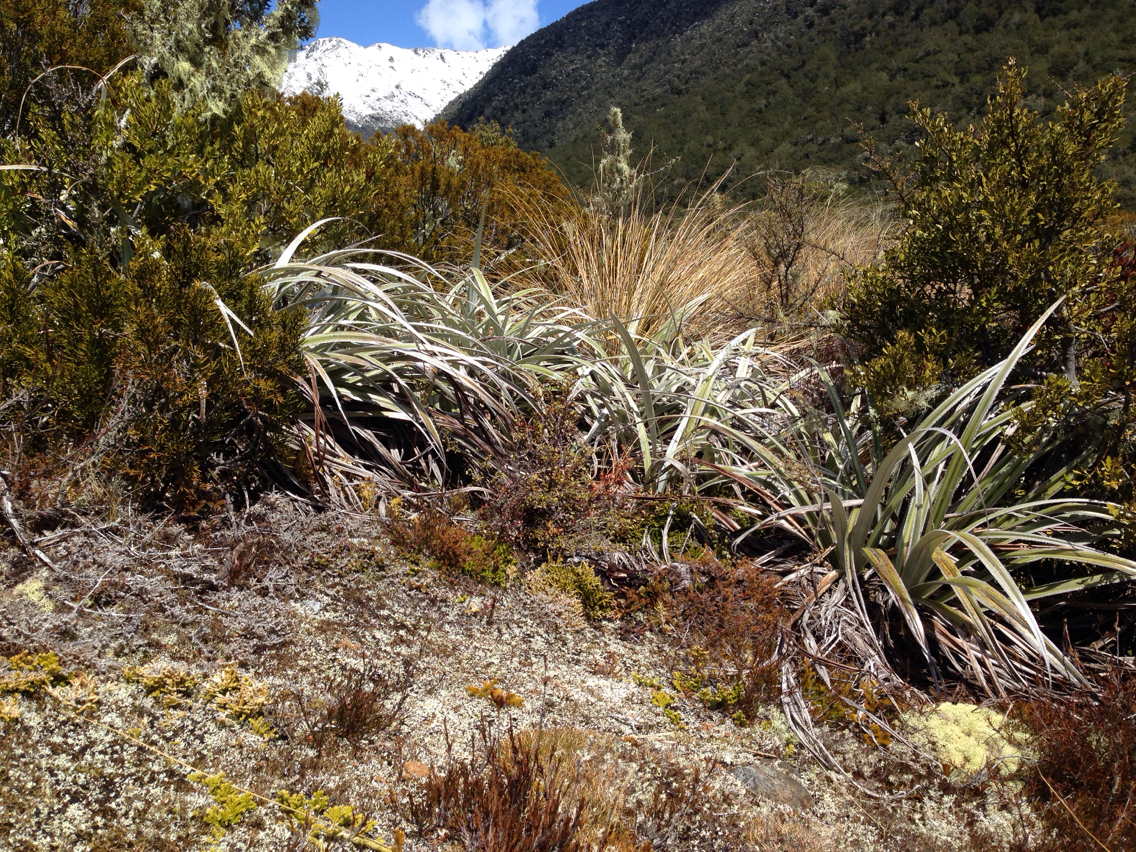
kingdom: Plantae
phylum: Tracheophyta
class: Liliopsida
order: Asparagales
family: Asteliaceae
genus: Astelia
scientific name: Astelia nervosa
